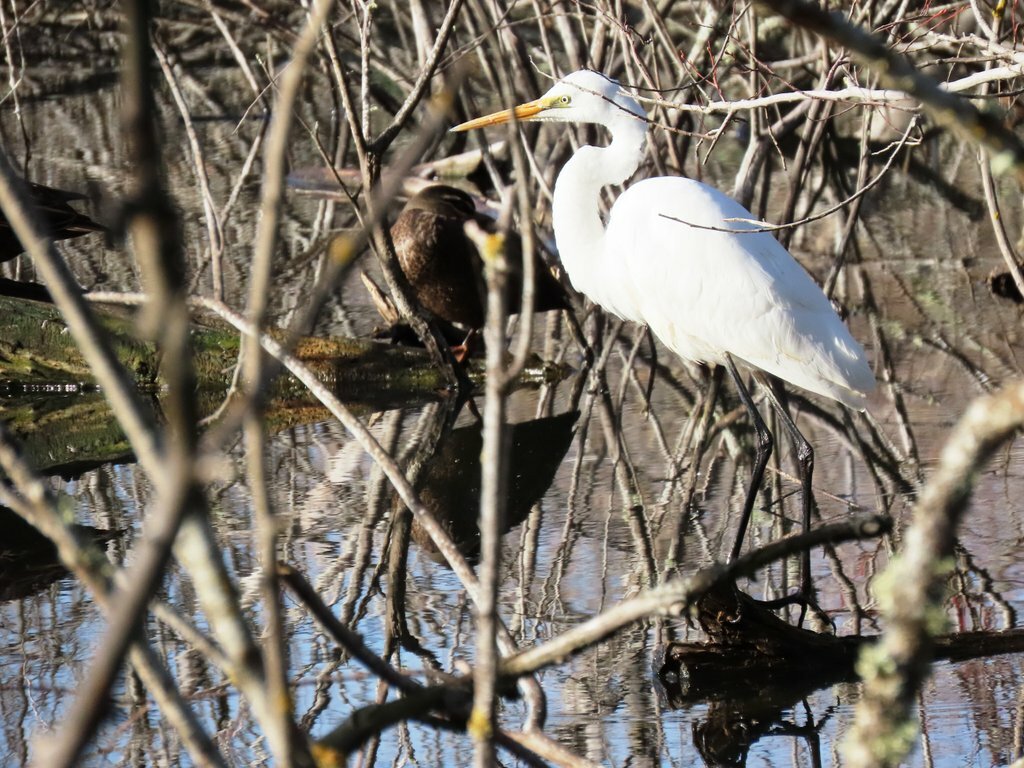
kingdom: Animalia
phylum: Chordata
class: Aves
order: Pelecaniformes
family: Ardeidae
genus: Ardea
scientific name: Ardea alba
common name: Great egret
